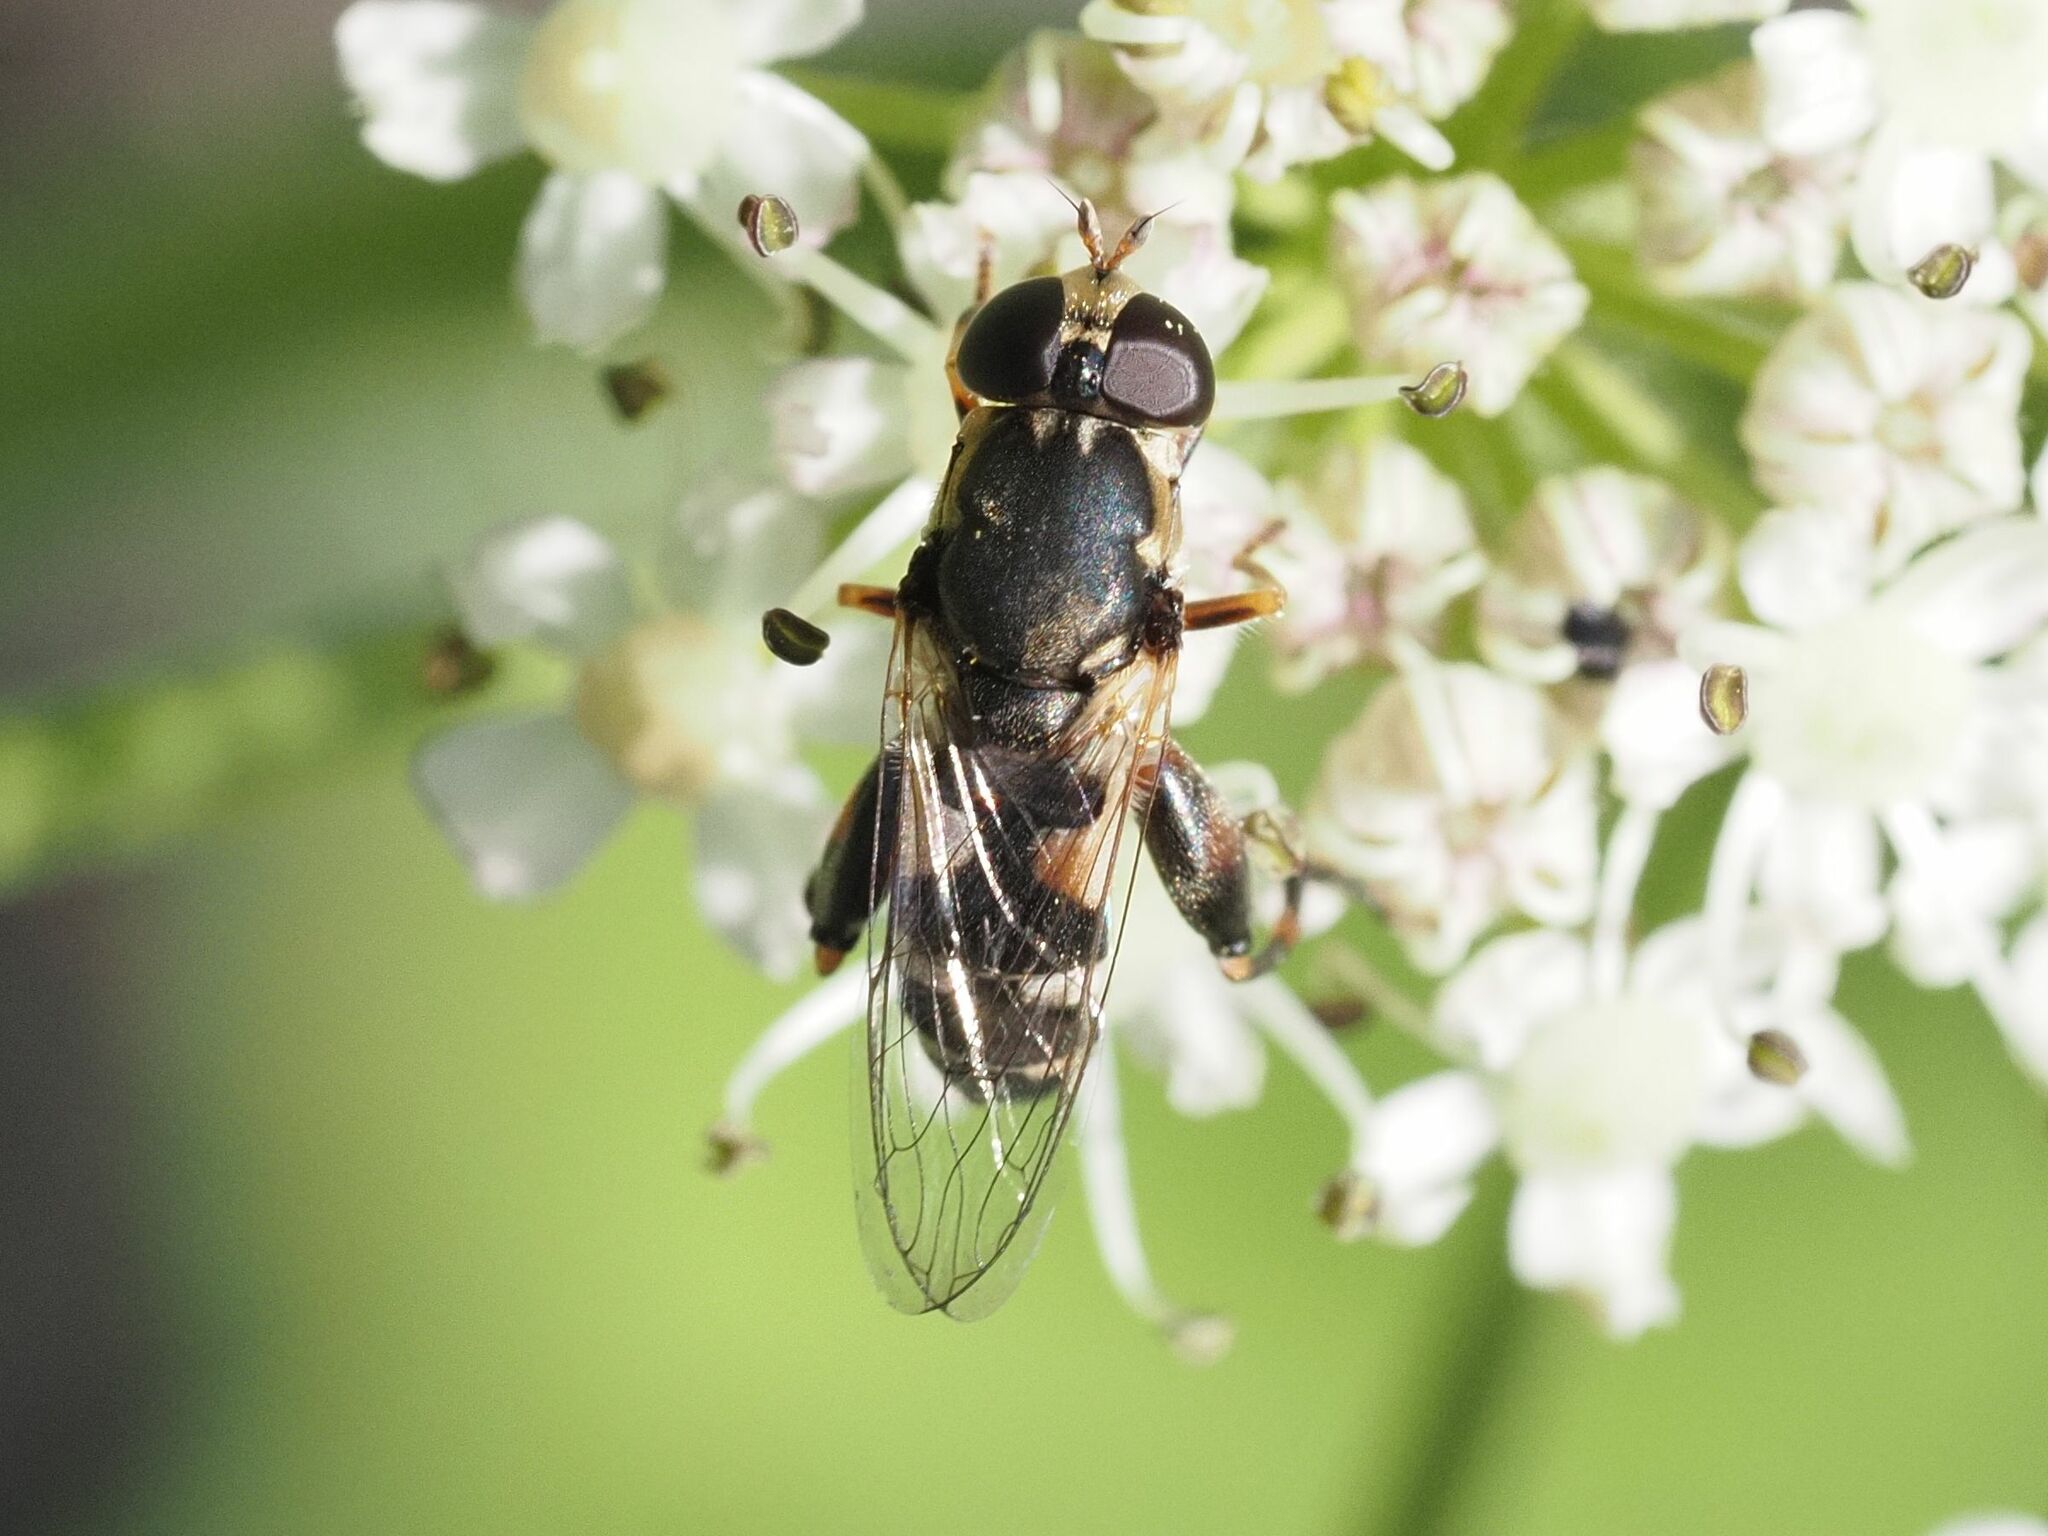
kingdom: Animalia
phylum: Arthropoda
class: Insecta
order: Diptera
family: Syrphidae
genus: Syritta
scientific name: Syritta pipiens
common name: Hover fly
